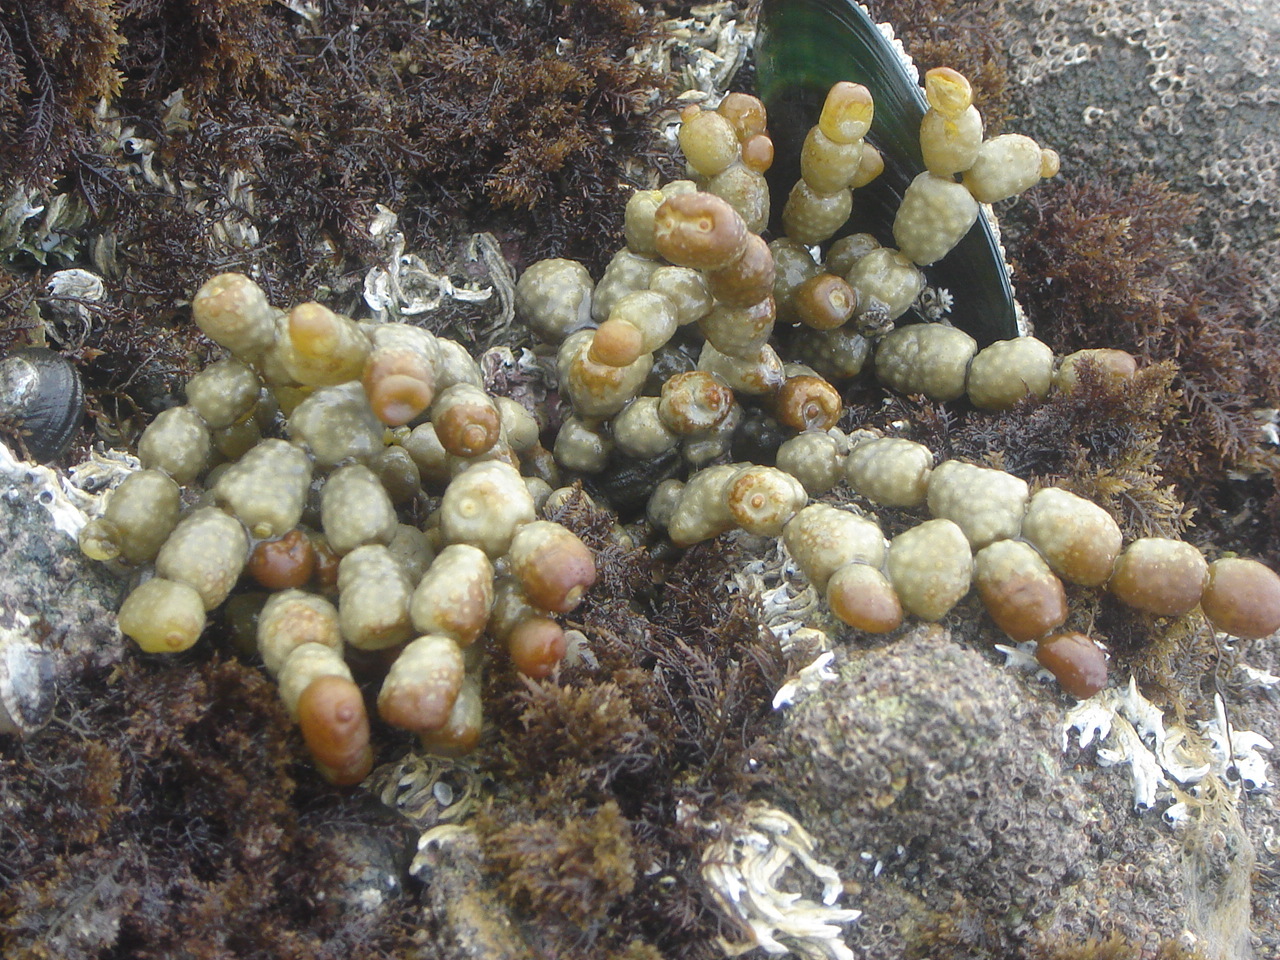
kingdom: Chromista
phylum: Ochrophyta
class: Phaeophyceae
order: Fucales
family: Hormosiraceae
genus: Hormosira
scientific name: Hormosira banksii
